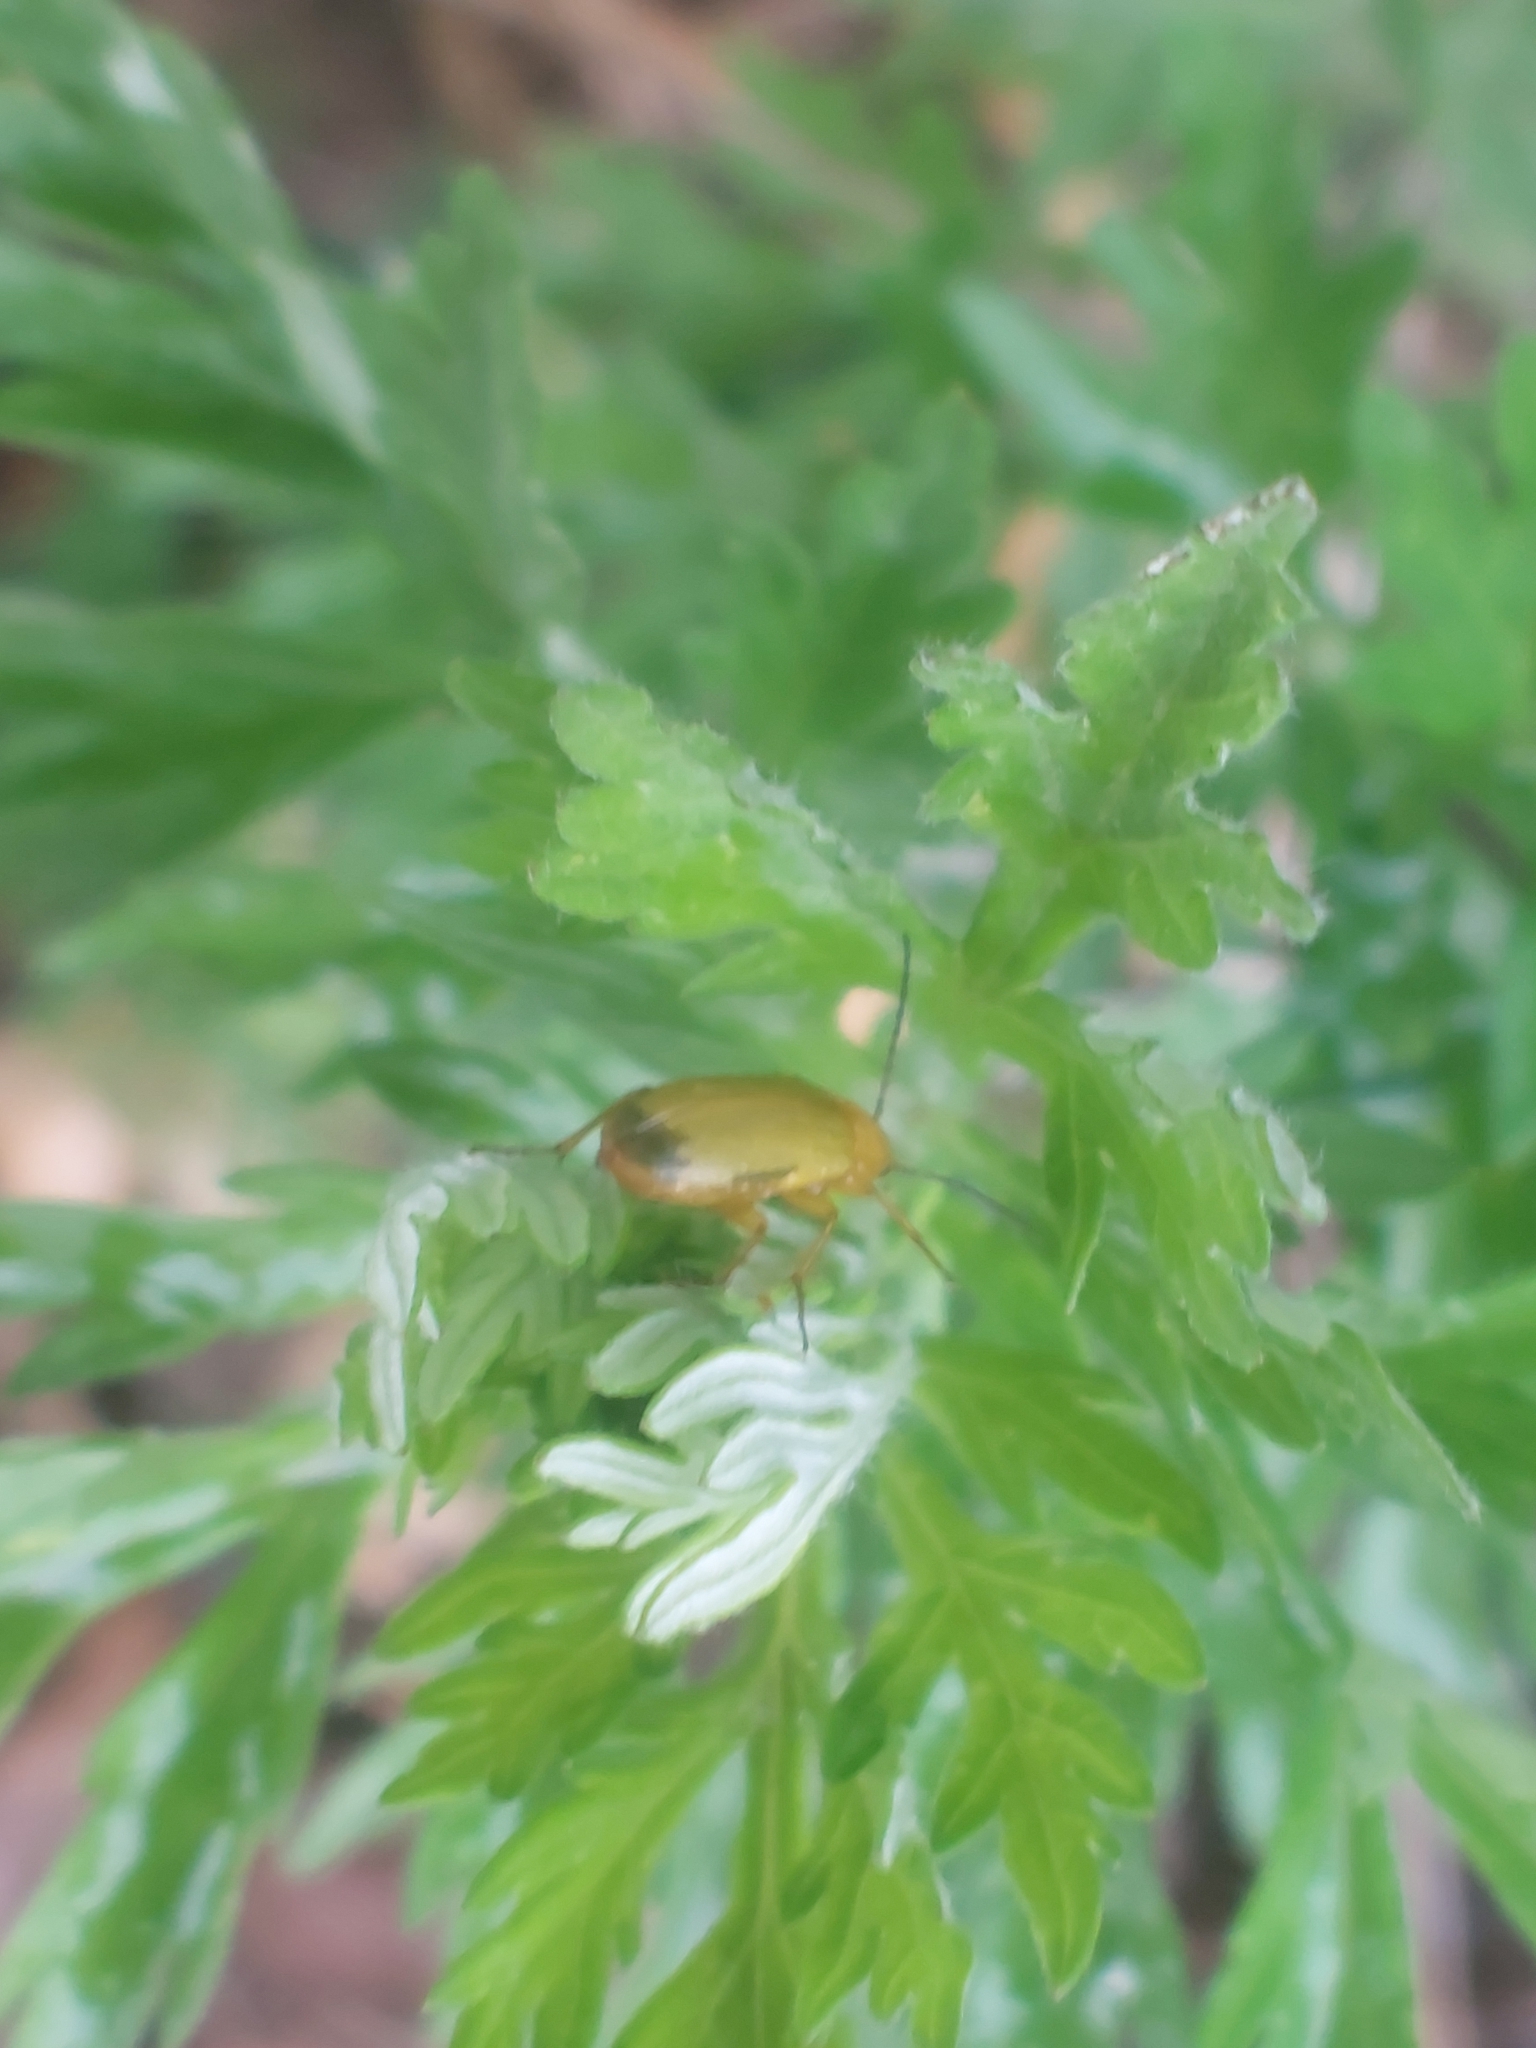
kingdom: Animalia
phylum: Arthropoda
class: Insecta
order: Coleoptera
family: Tenebrionidae
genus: Cteniopus
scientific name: Cteniopus sulphureus
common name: Sulphur beetle
